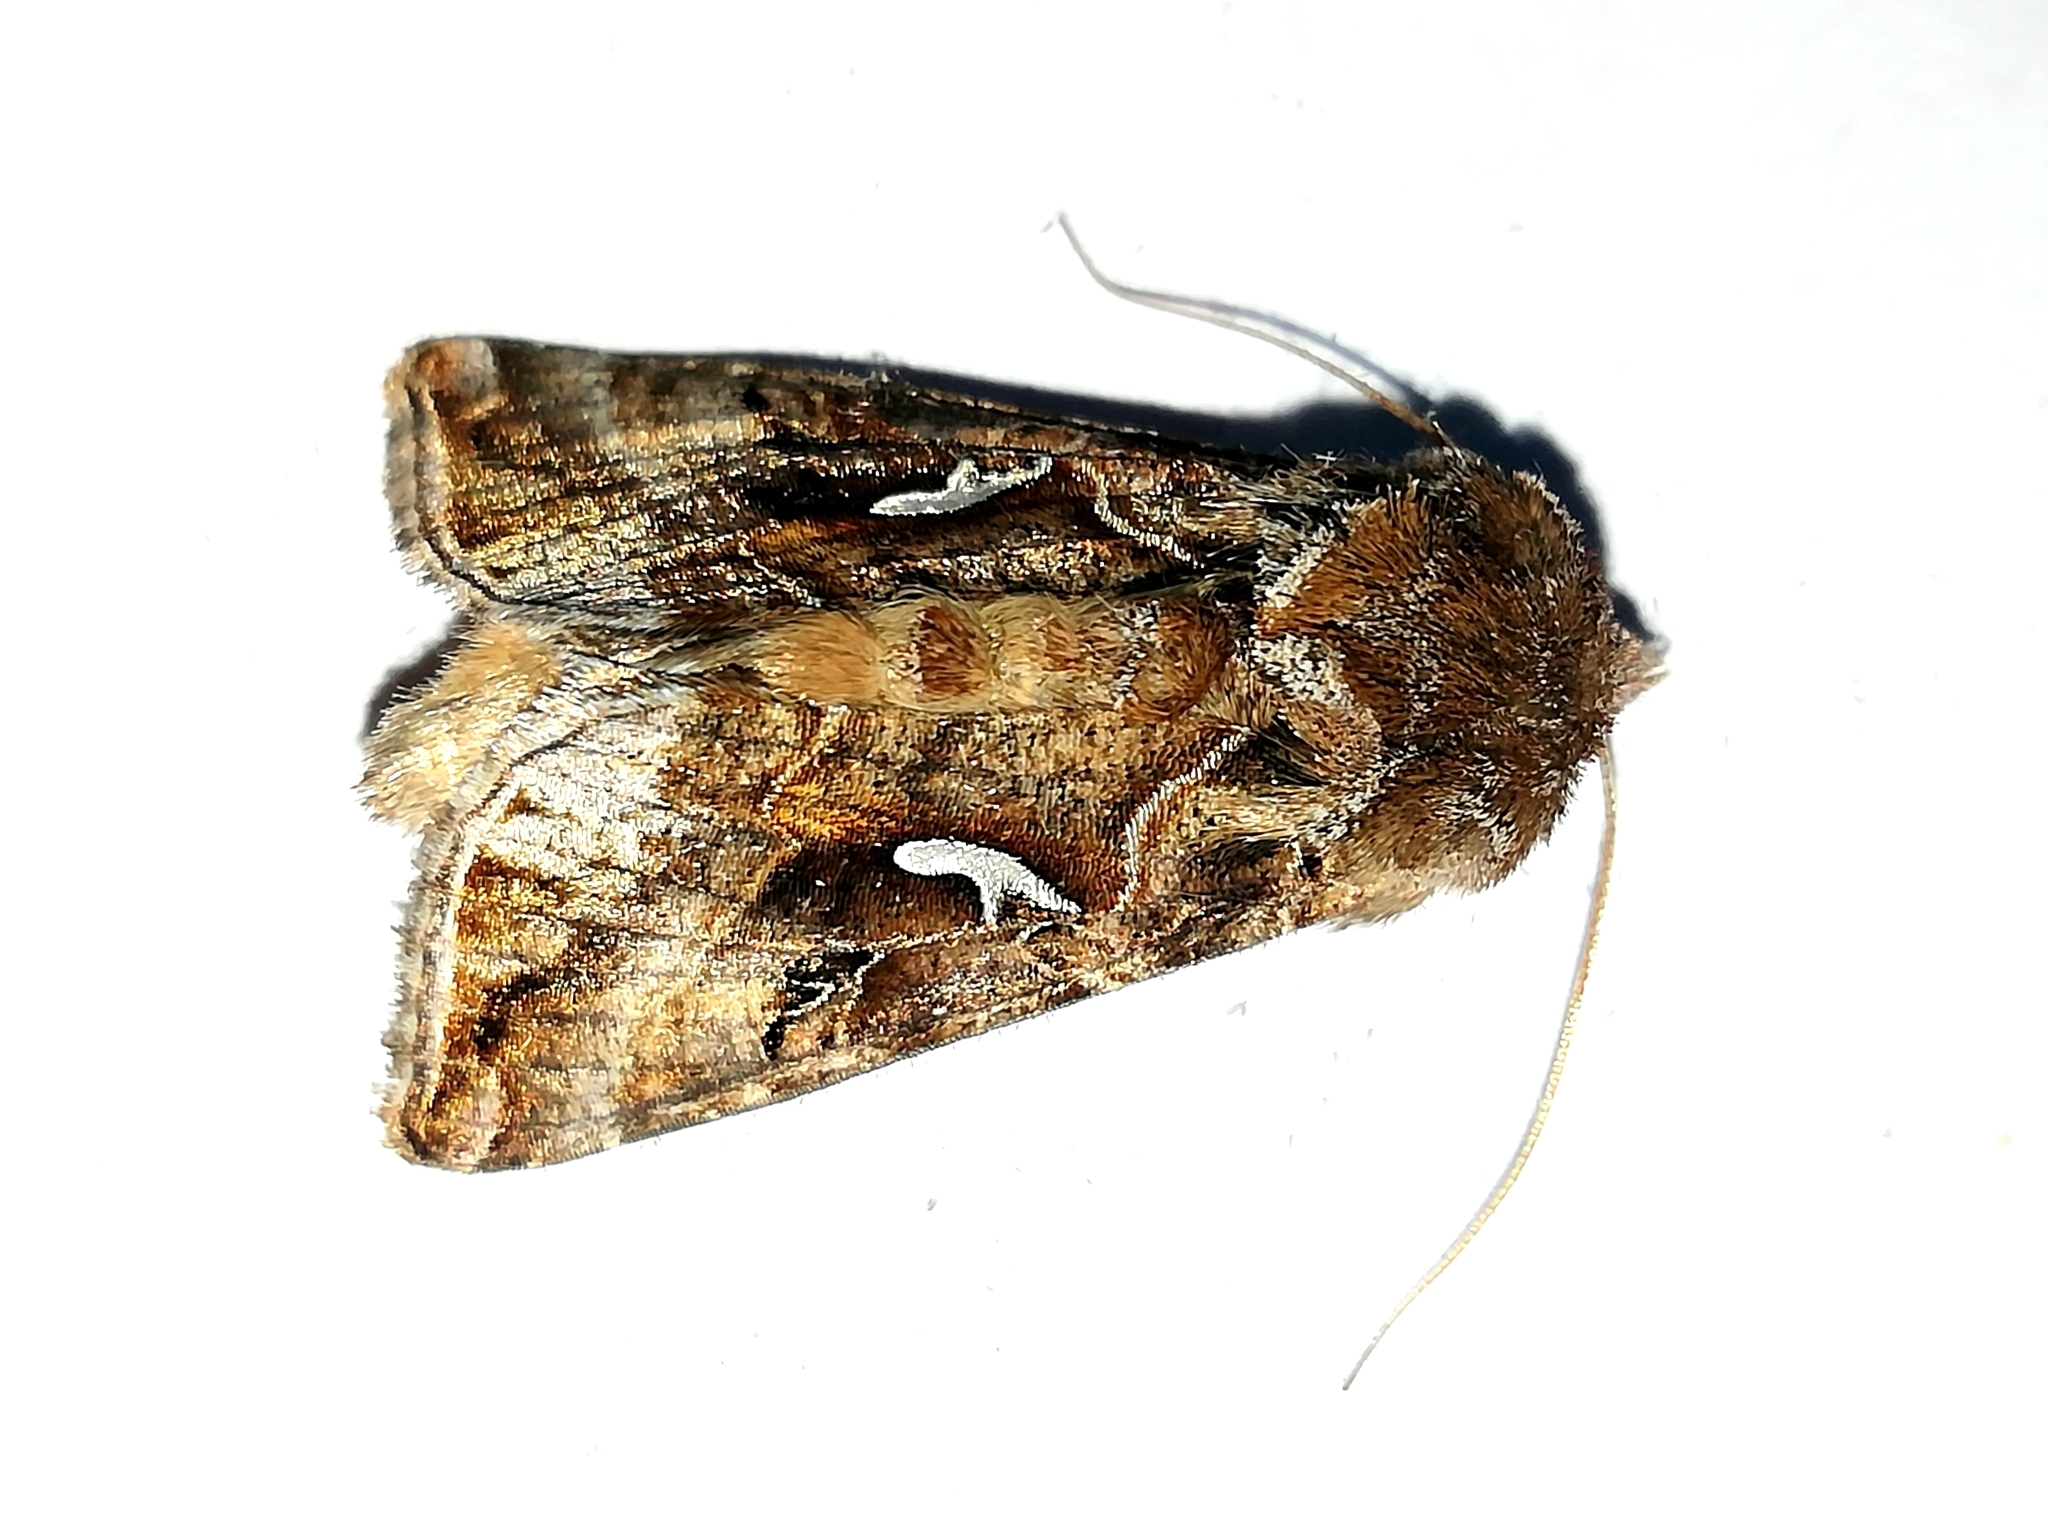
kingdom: Animalia
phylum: Arthropoda
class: Insecta
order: Lepidoptera
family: Noctuidae
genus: Autographa
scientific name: Autographa mandarina
